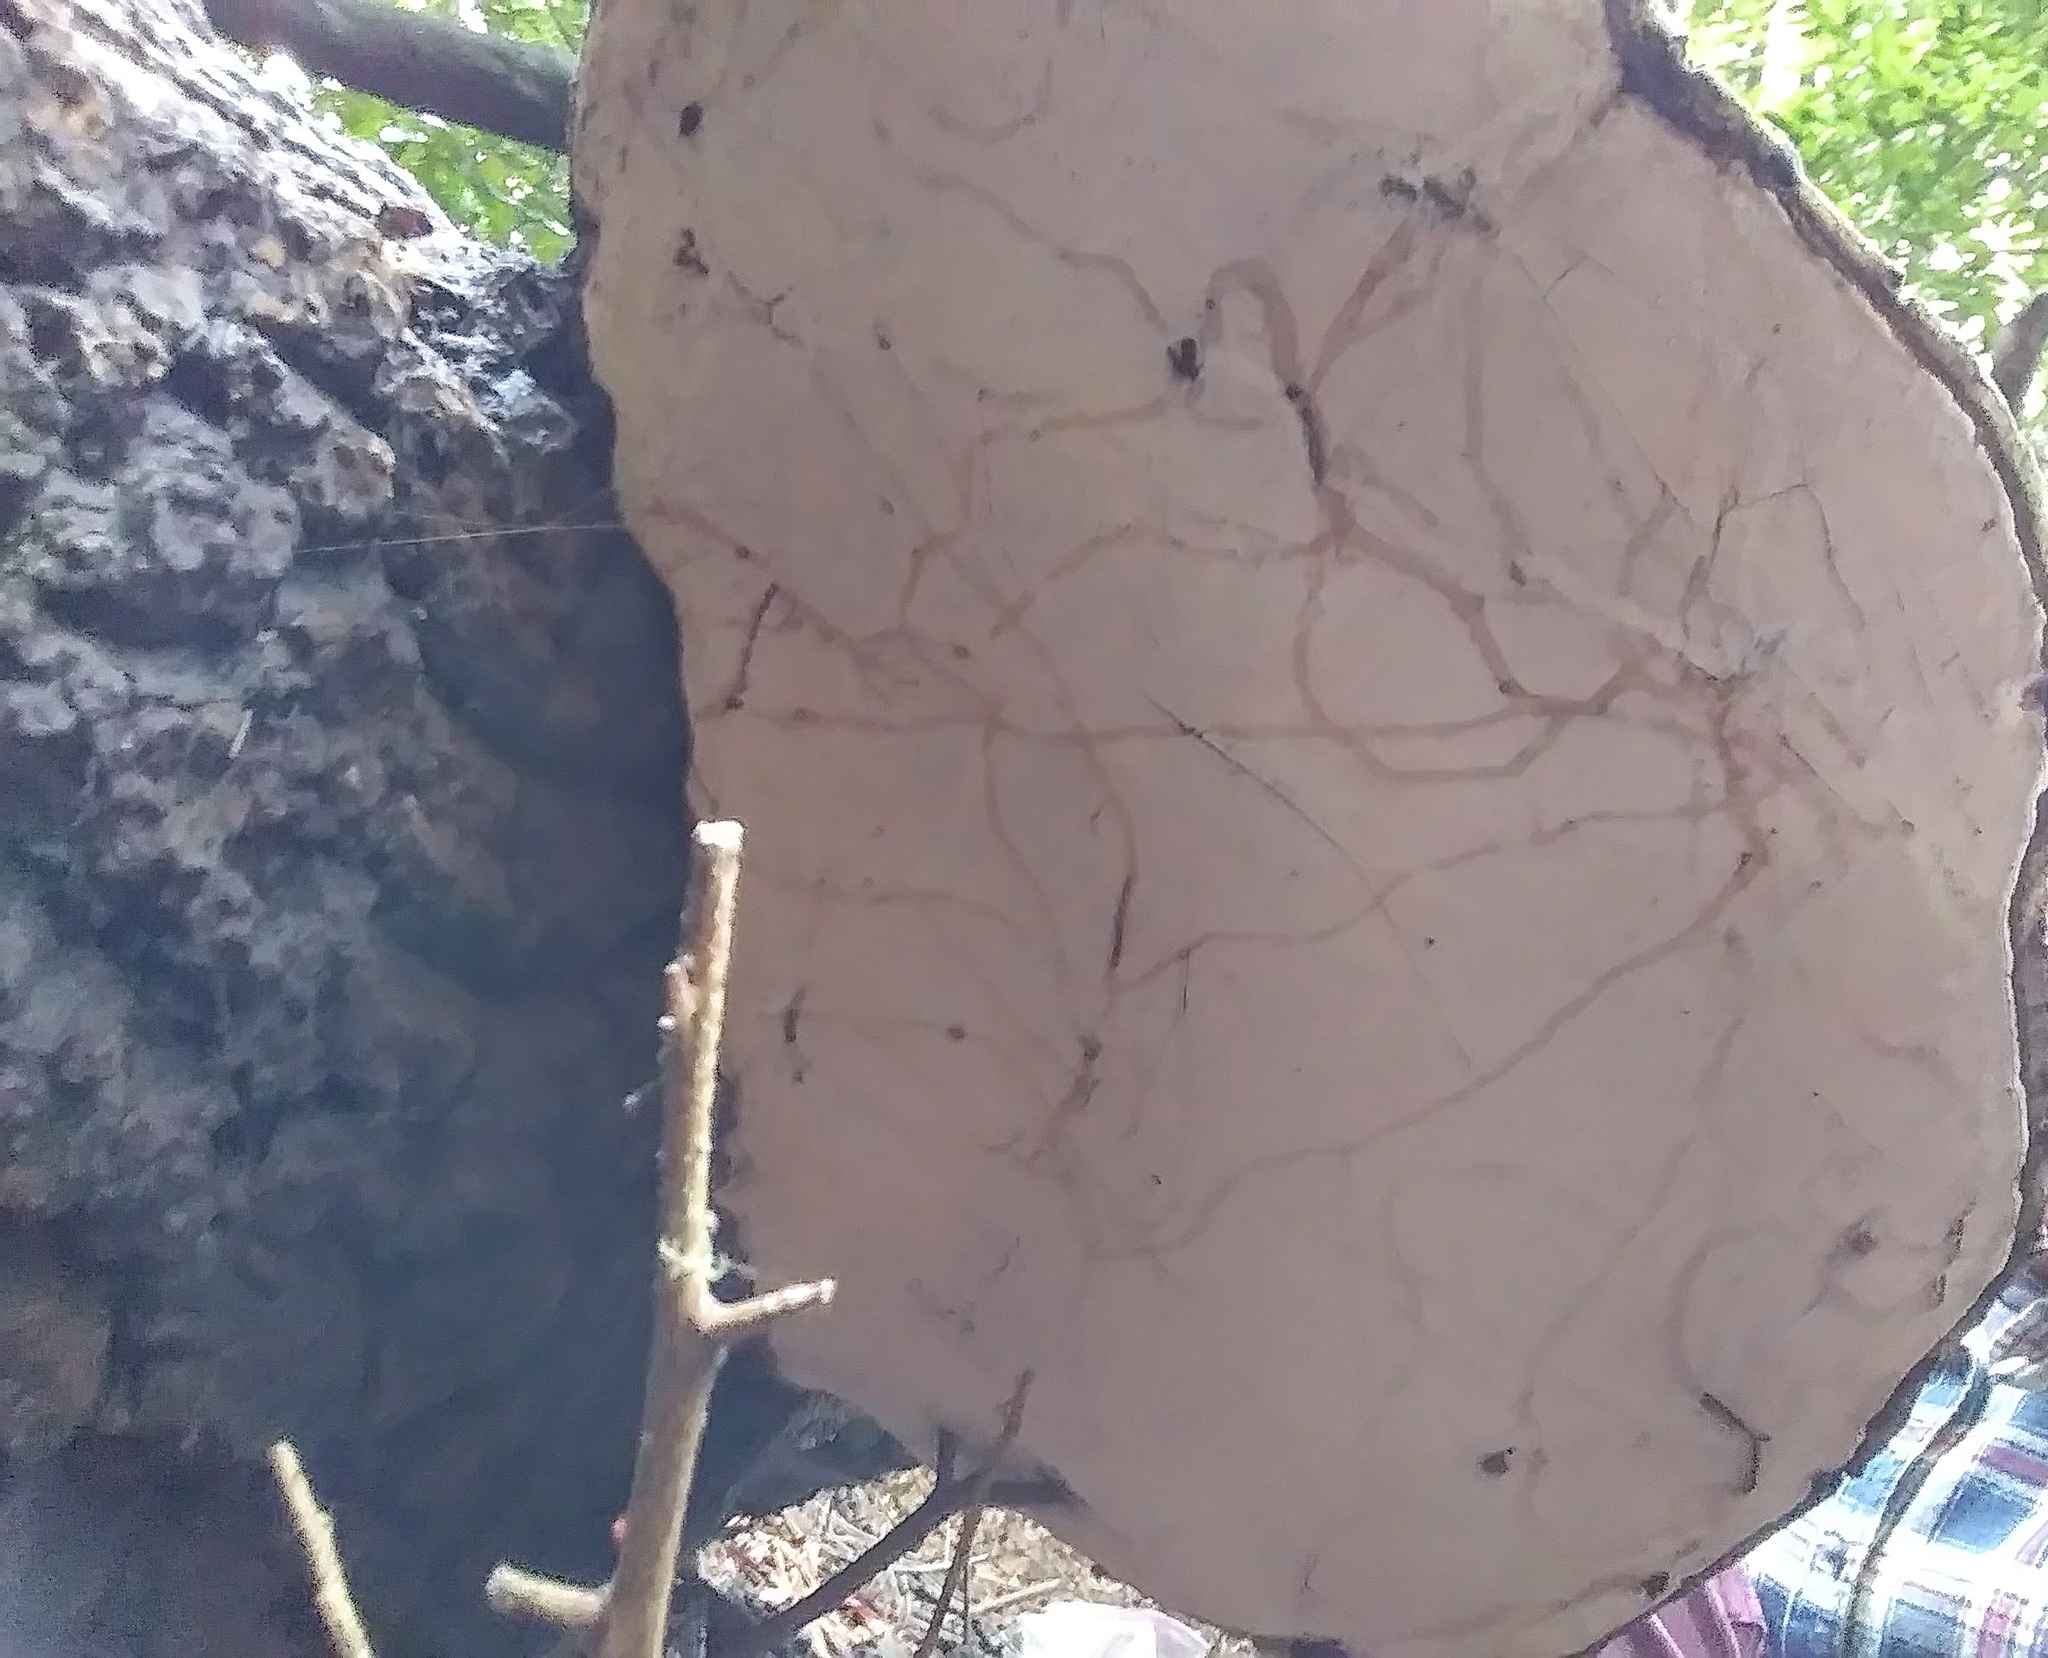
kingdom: Fungi
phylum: Basidiomycota
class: Agaricomycetes
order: Polyporales
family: Polyporaceae
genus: Ganoderma
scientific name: Ganoderma brownii
